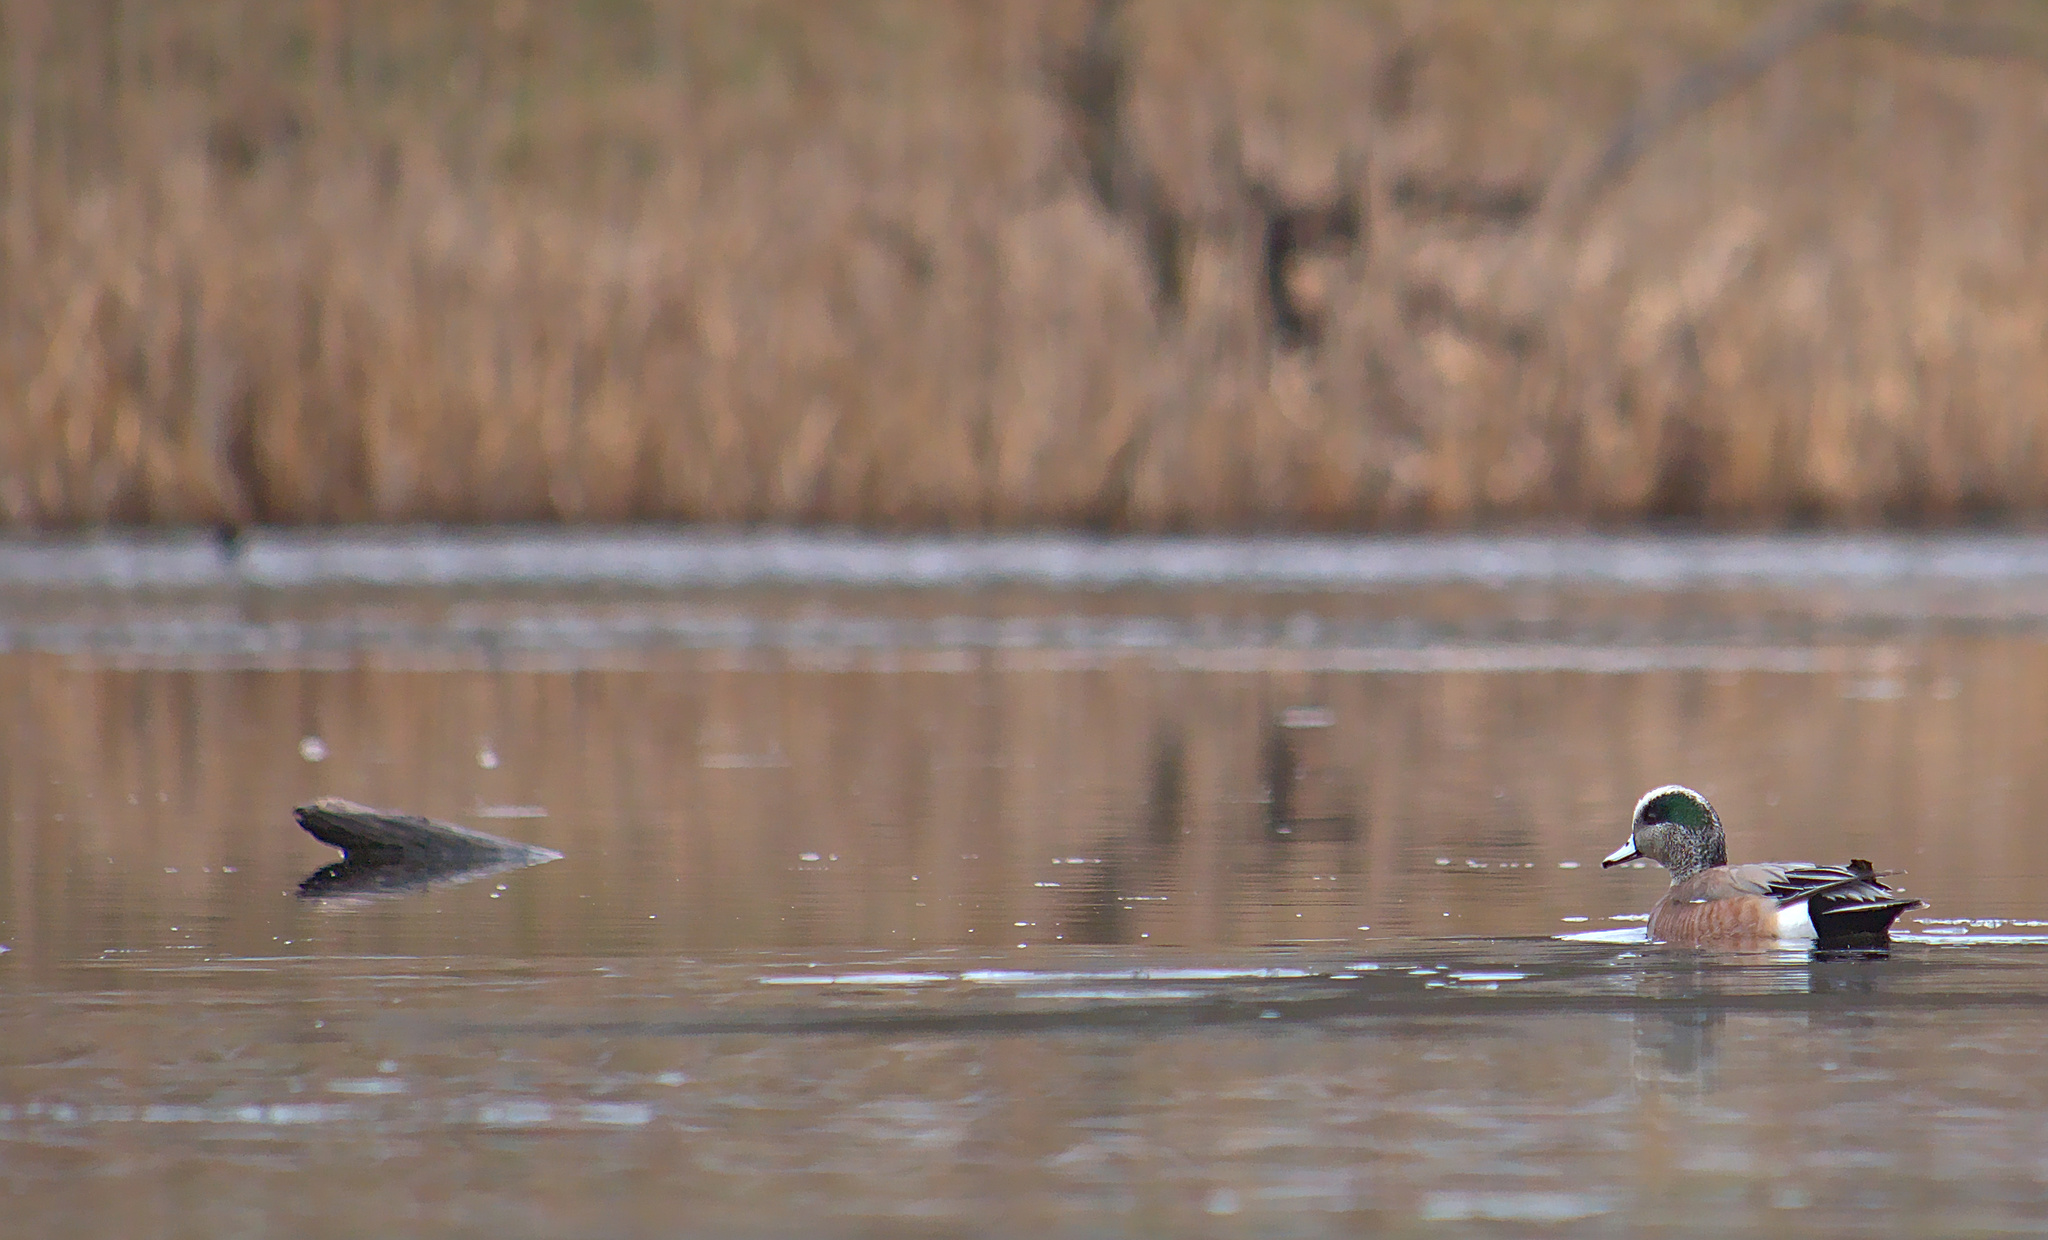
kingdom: Animalia
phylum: Chordata
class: Aves
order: Anseriformes
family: Anatidae
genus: Mareca
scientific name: Mareca americana
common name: American wigeon
